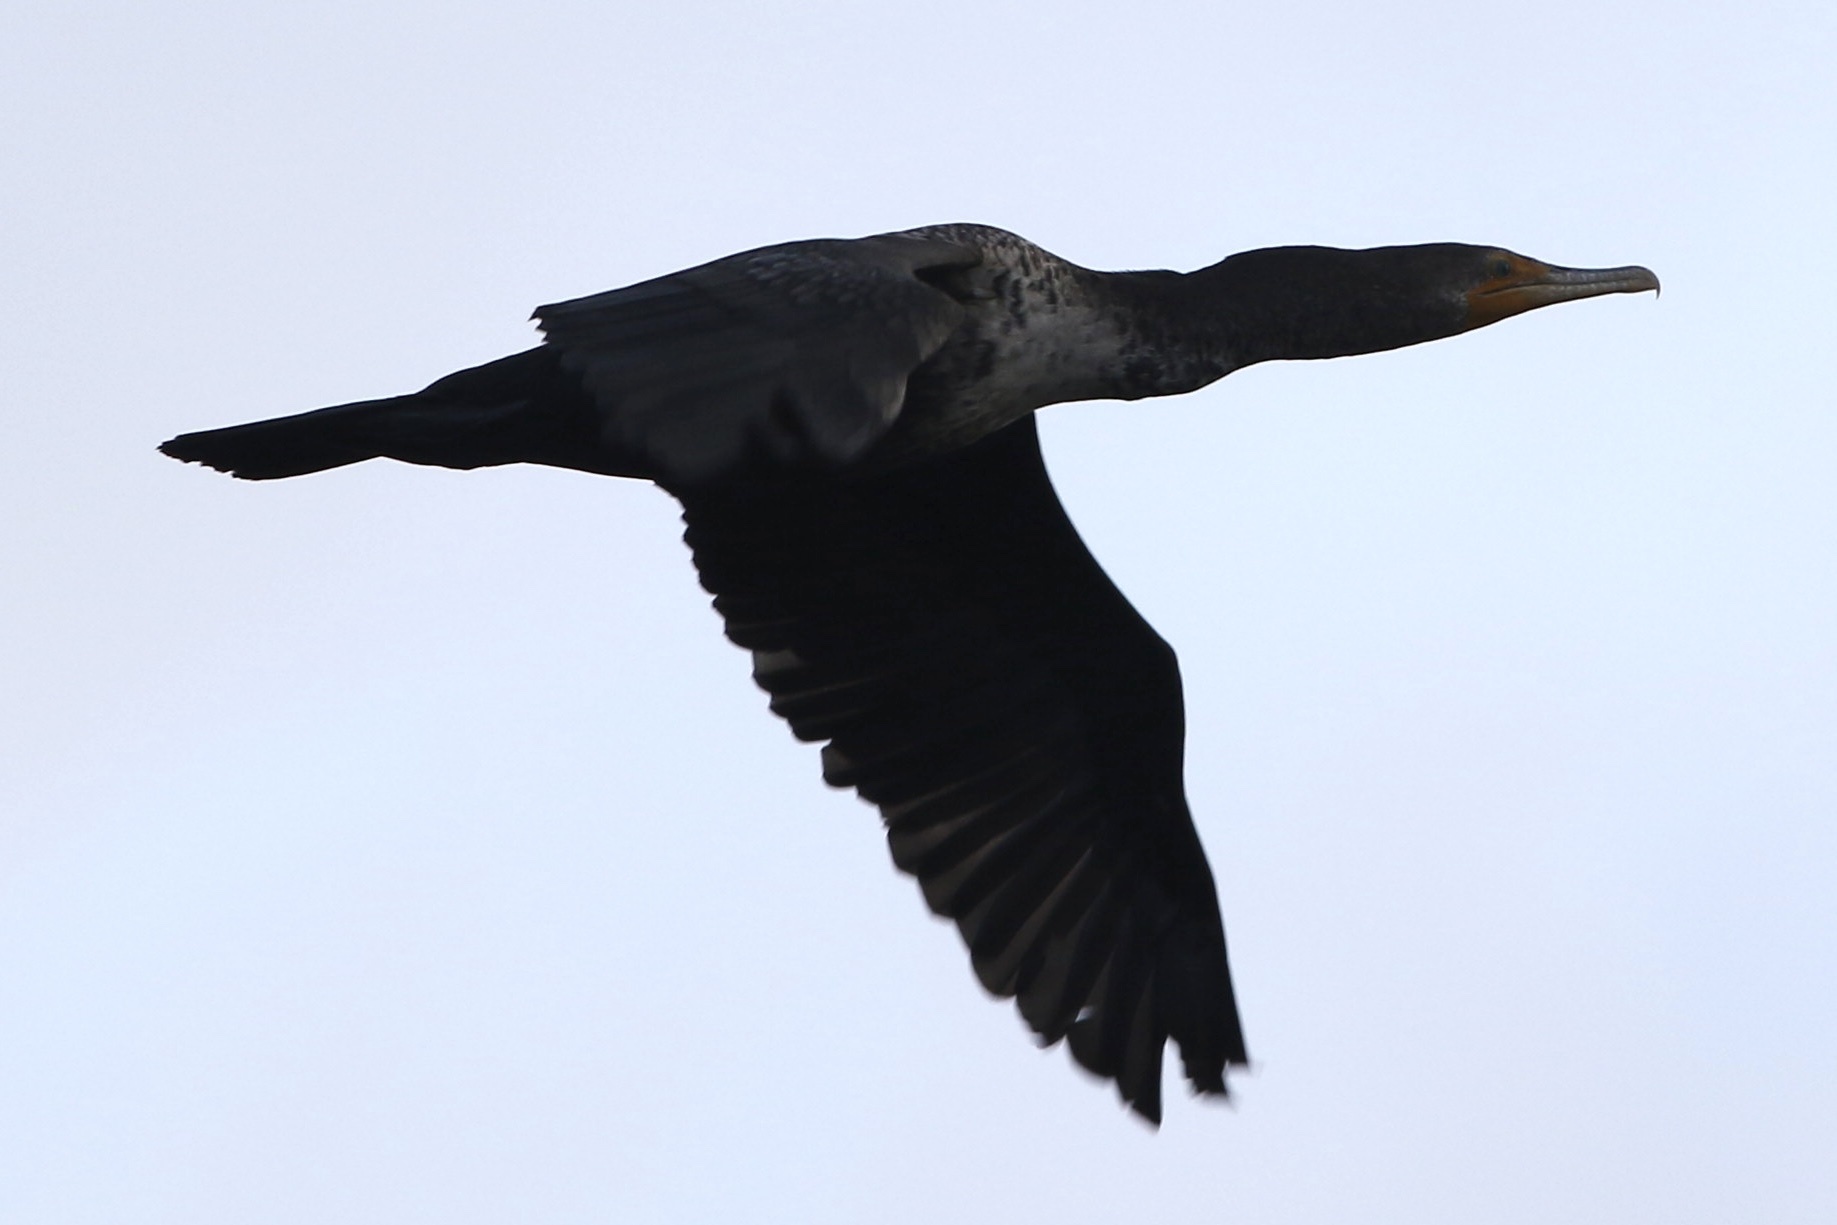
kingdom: Animalia
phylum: Chordata
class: Aves
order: Suliformes
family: Phalacrocoracidae
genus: Phalacrocorax
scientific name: Phalacrocorax auritus
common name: Double-crested cormorant
